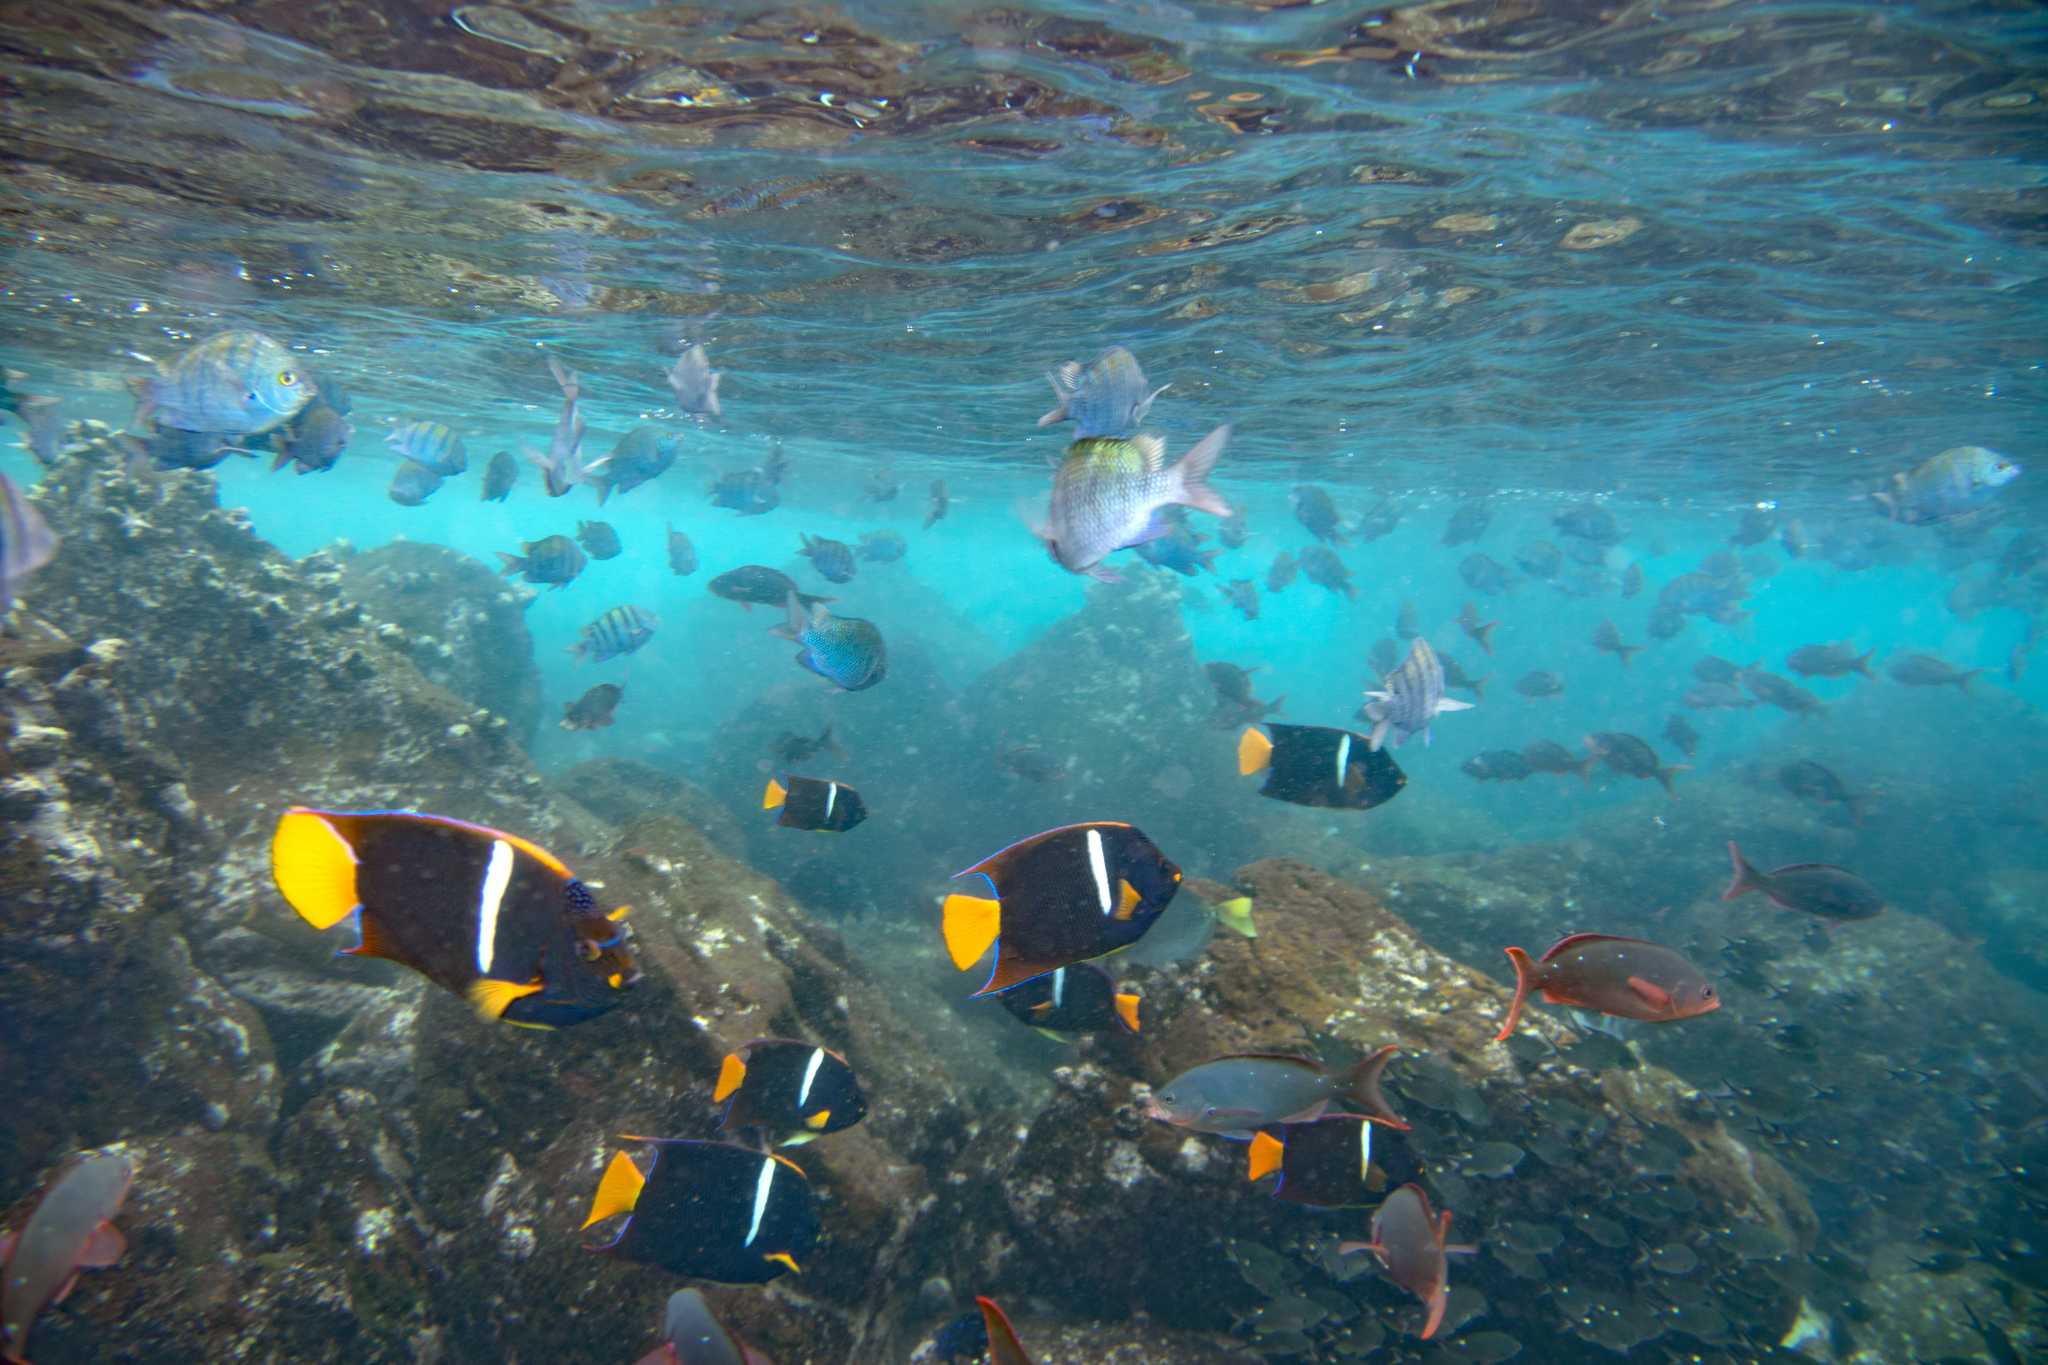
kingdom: Animalia
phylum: Chordata
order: Perciformes
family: Serranidae
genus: Paranthias
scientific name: Paranthias colonus
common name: Pacific creole-fish
